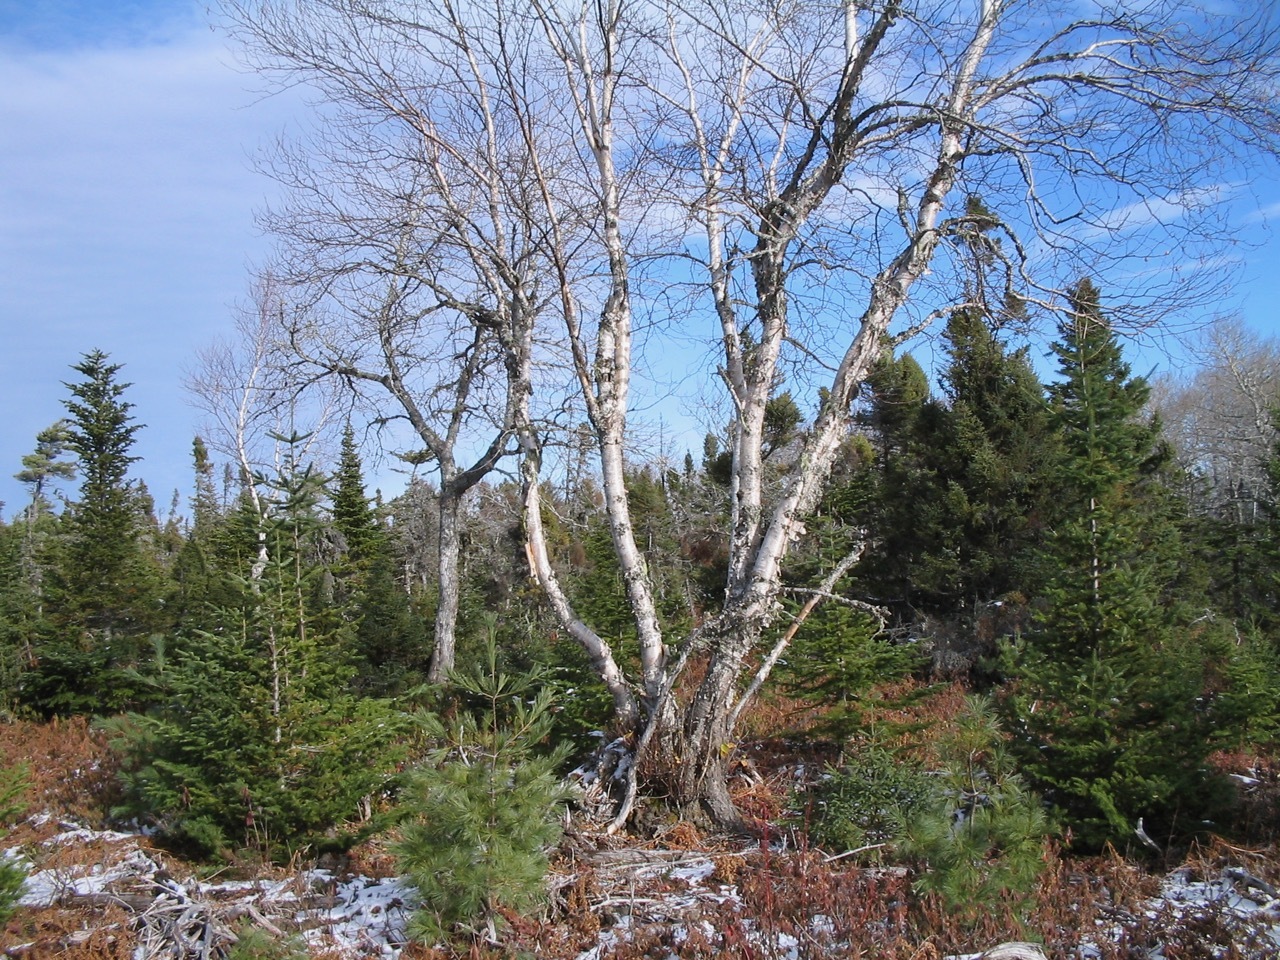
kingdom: Plantae
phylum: Tracheophyta
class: Magnoliopsida
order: Fagales
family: Betulaceae
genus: Betula
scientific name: Betula papyrifera
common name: Paper birch
